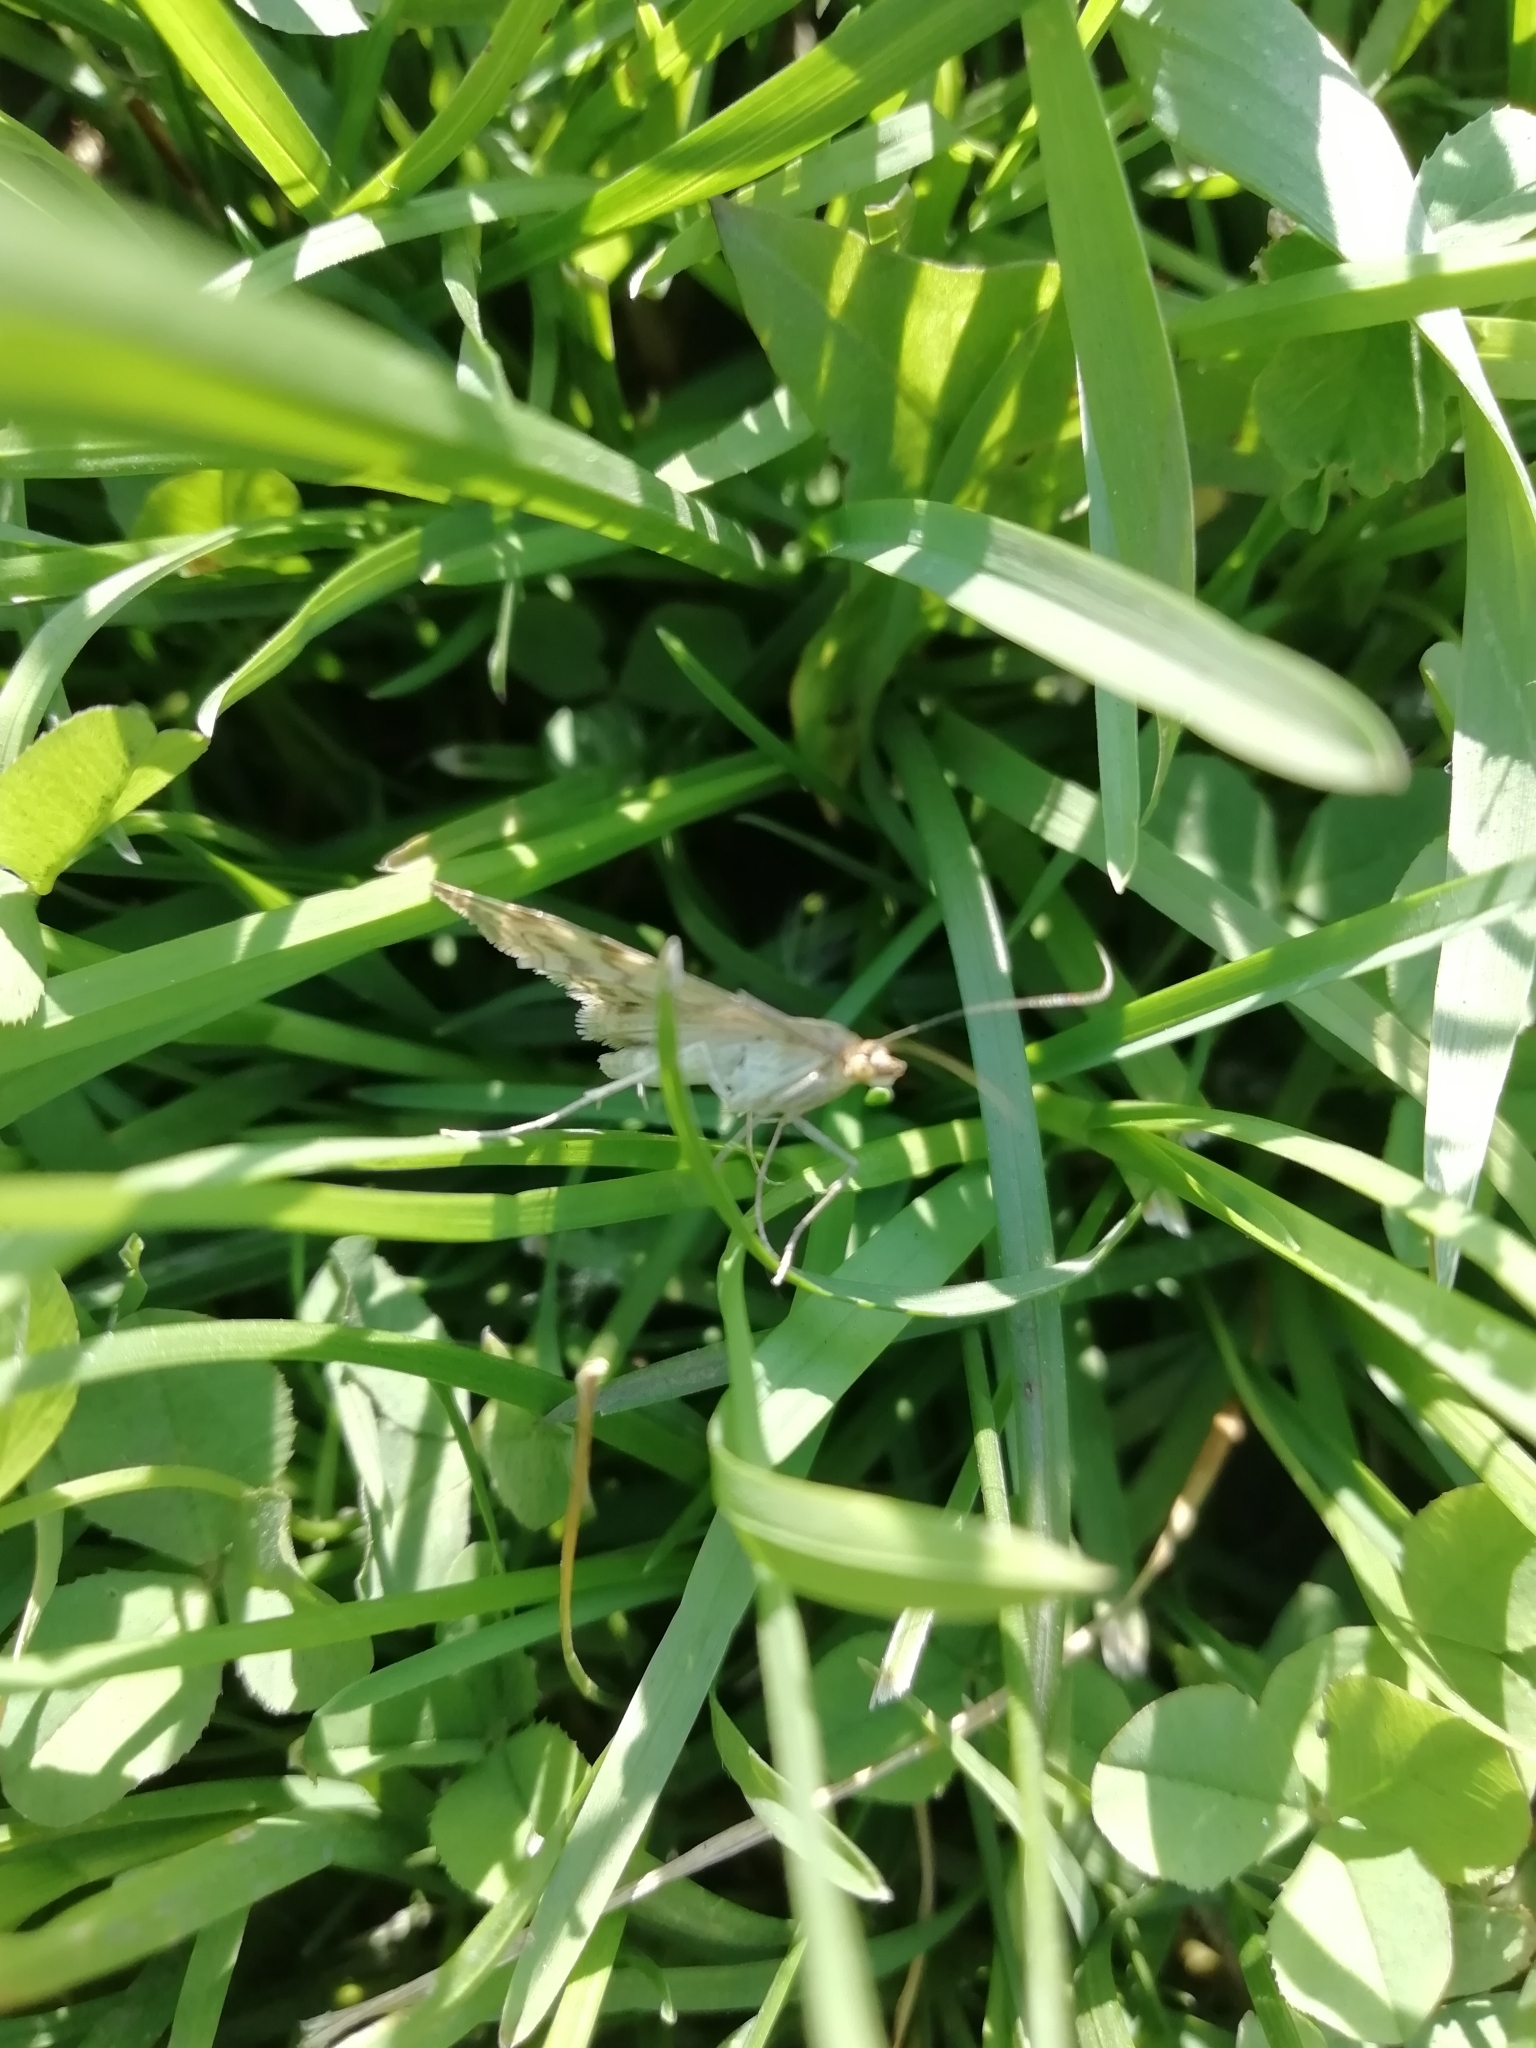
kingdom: Animalia
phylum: Arthropoda
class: Insecta
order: Lepidoptera
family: Crambidae
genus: Loxostege
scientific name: Loxostege sticticalis
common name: Crambid moth
